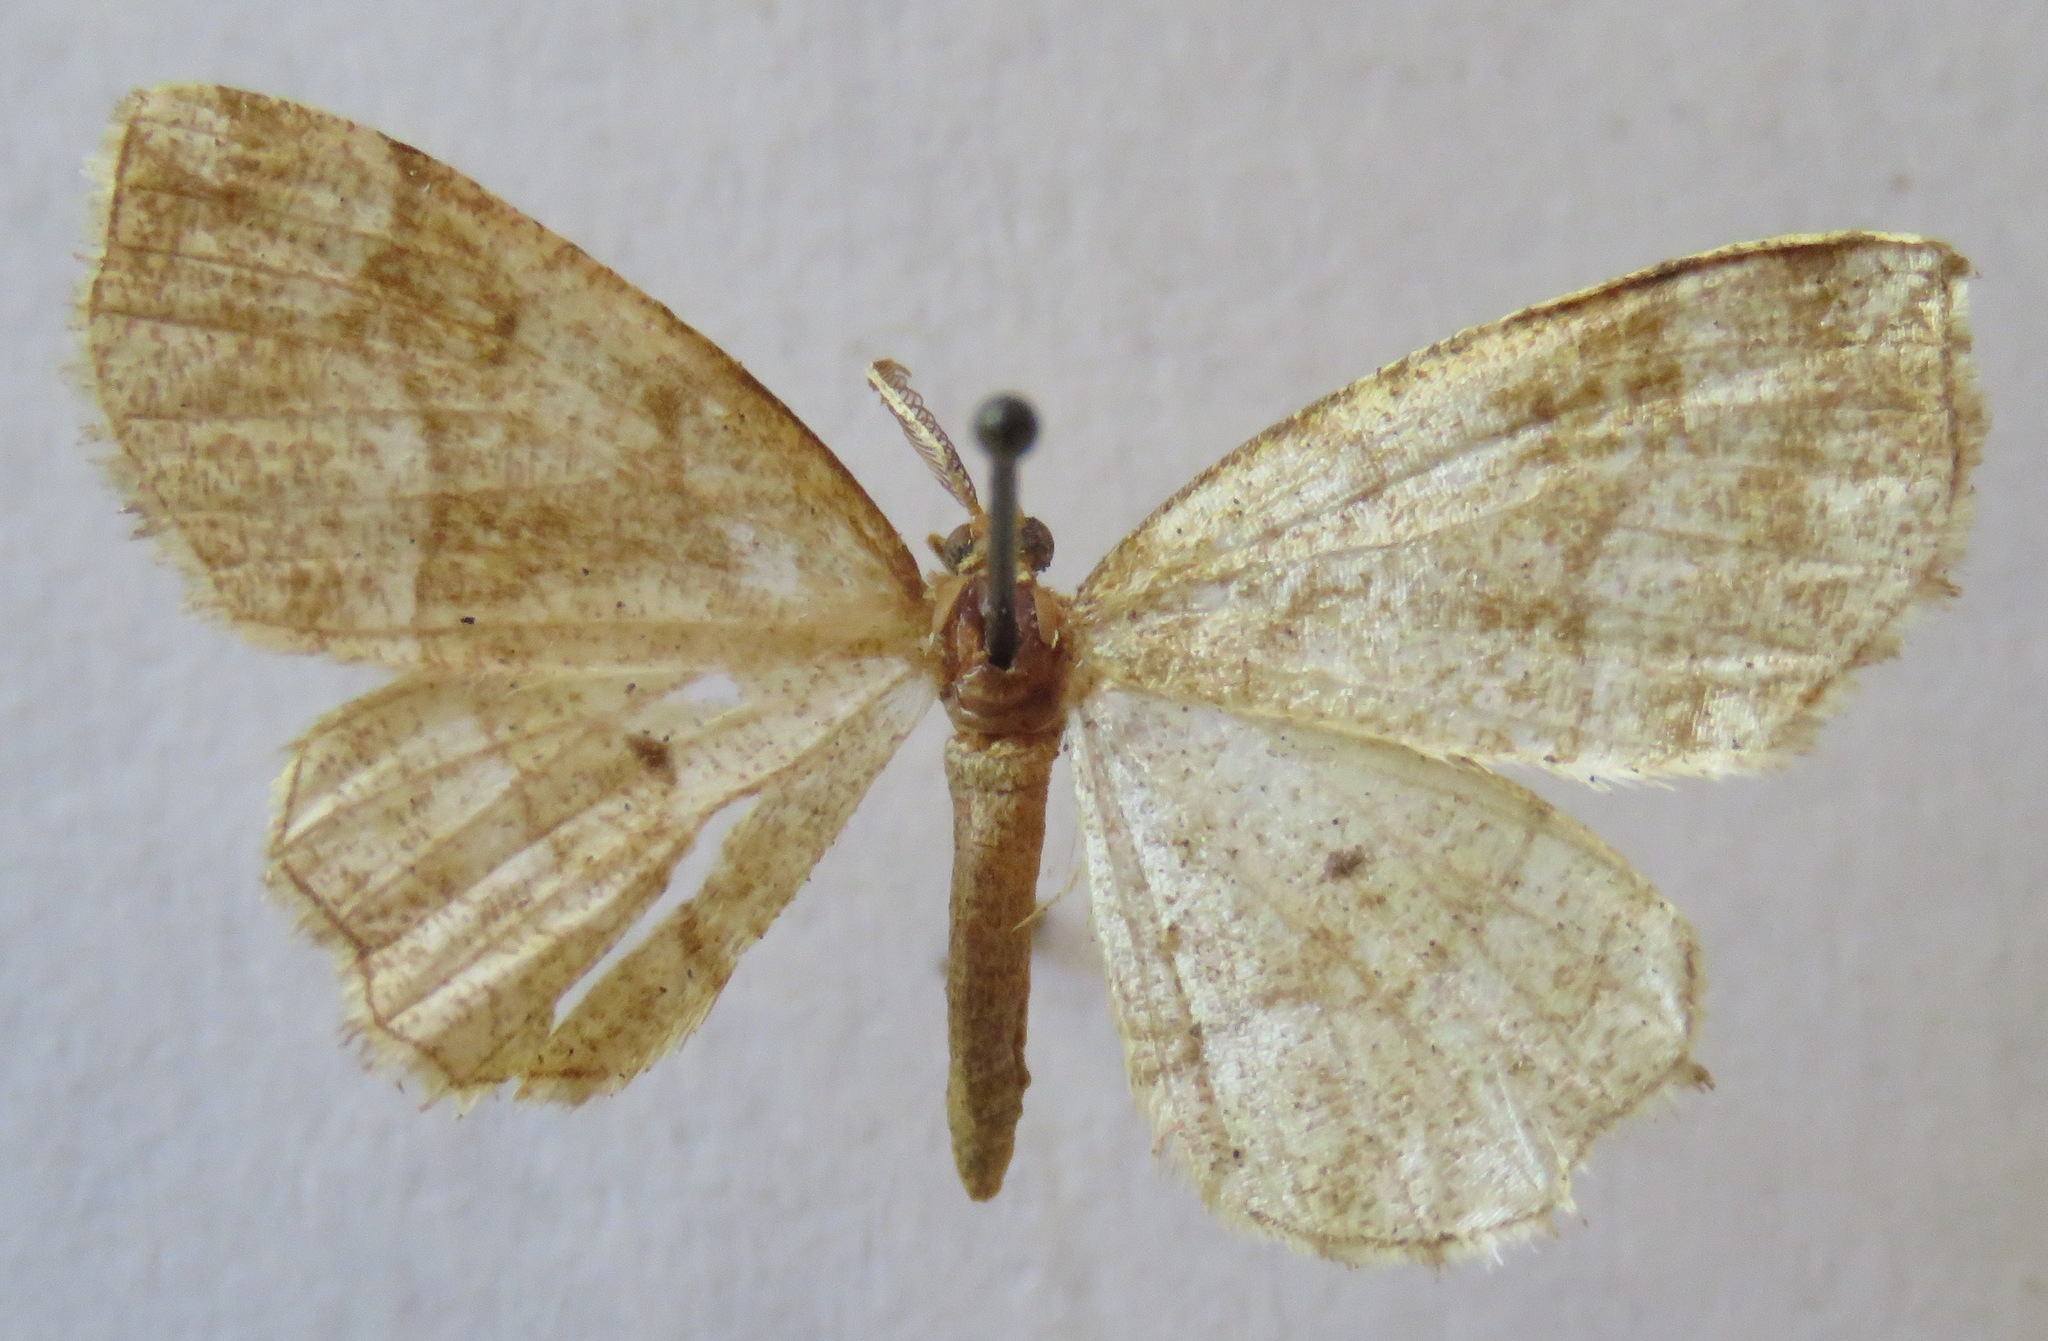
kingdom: Animalia
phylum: Arthropoda
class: Insecta
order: Lepidoptera
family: Geometridae
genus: Cepphis
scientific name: Cepphis advenaria
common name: Little thorn
